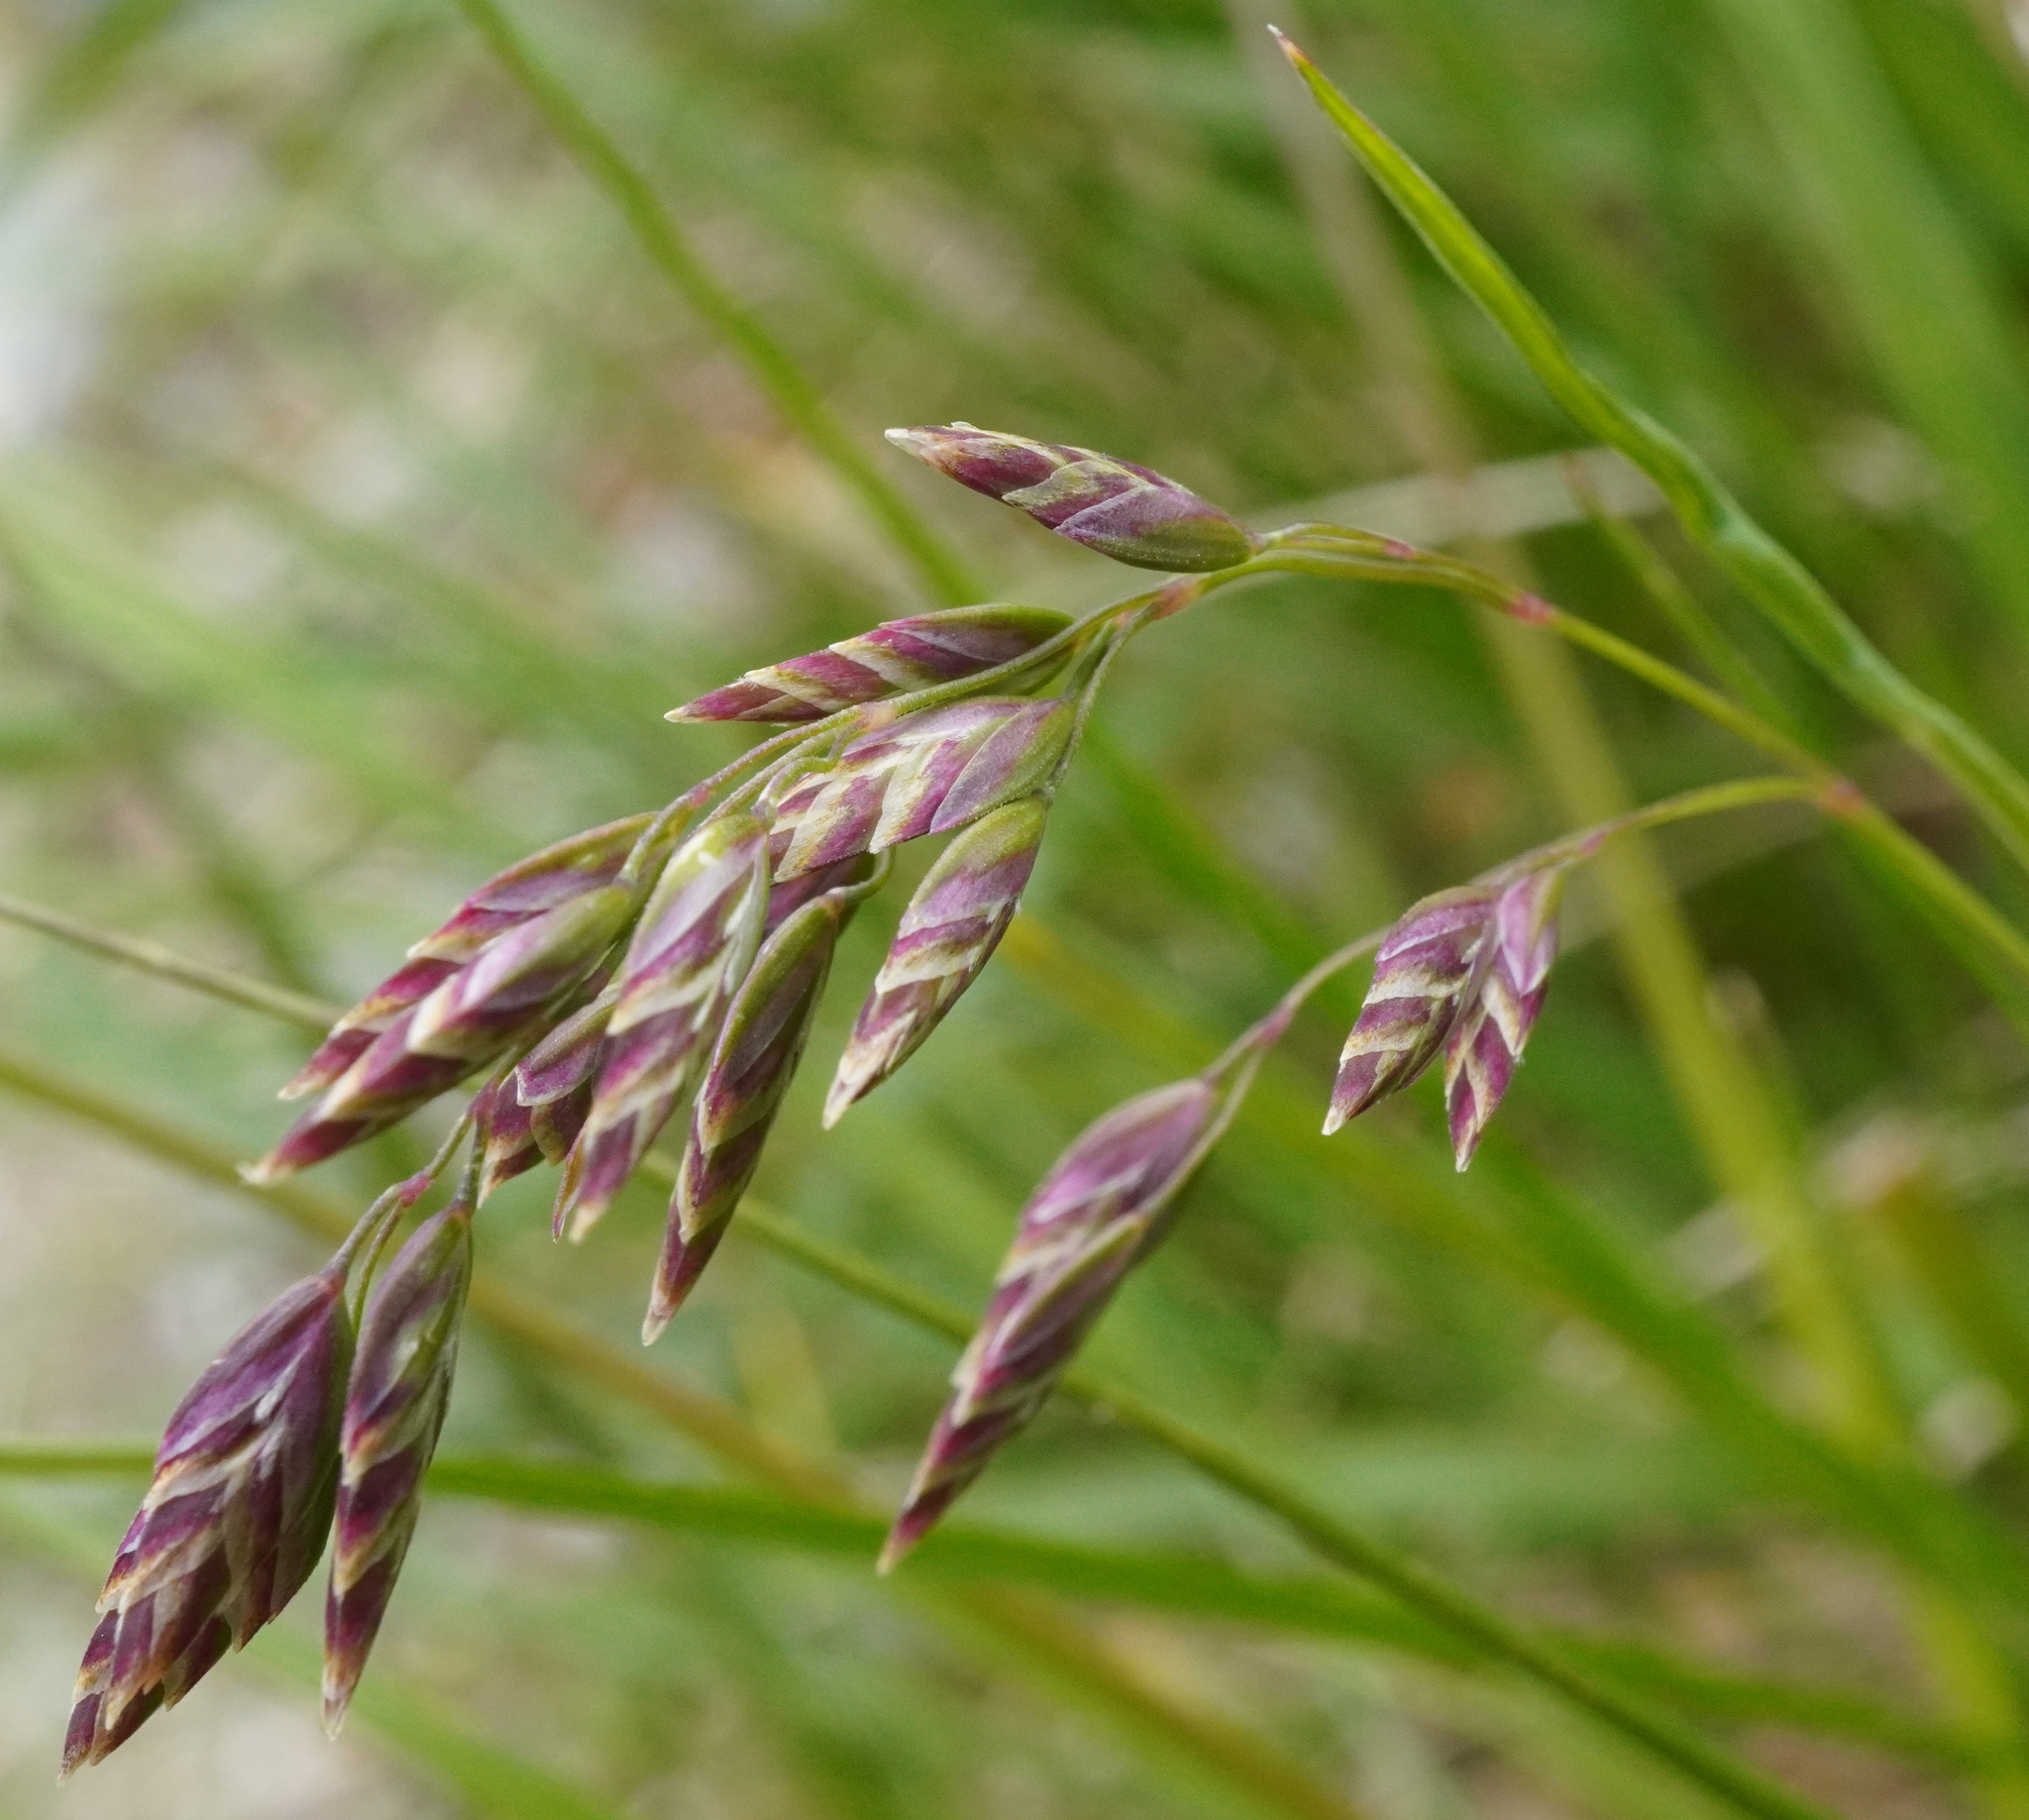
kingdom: Plantae
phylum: Tracheophyta
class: Liliopsida
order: Poales
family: Poaceae
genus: Poa
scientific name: Poa alpina
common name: Alpine bluegrass
